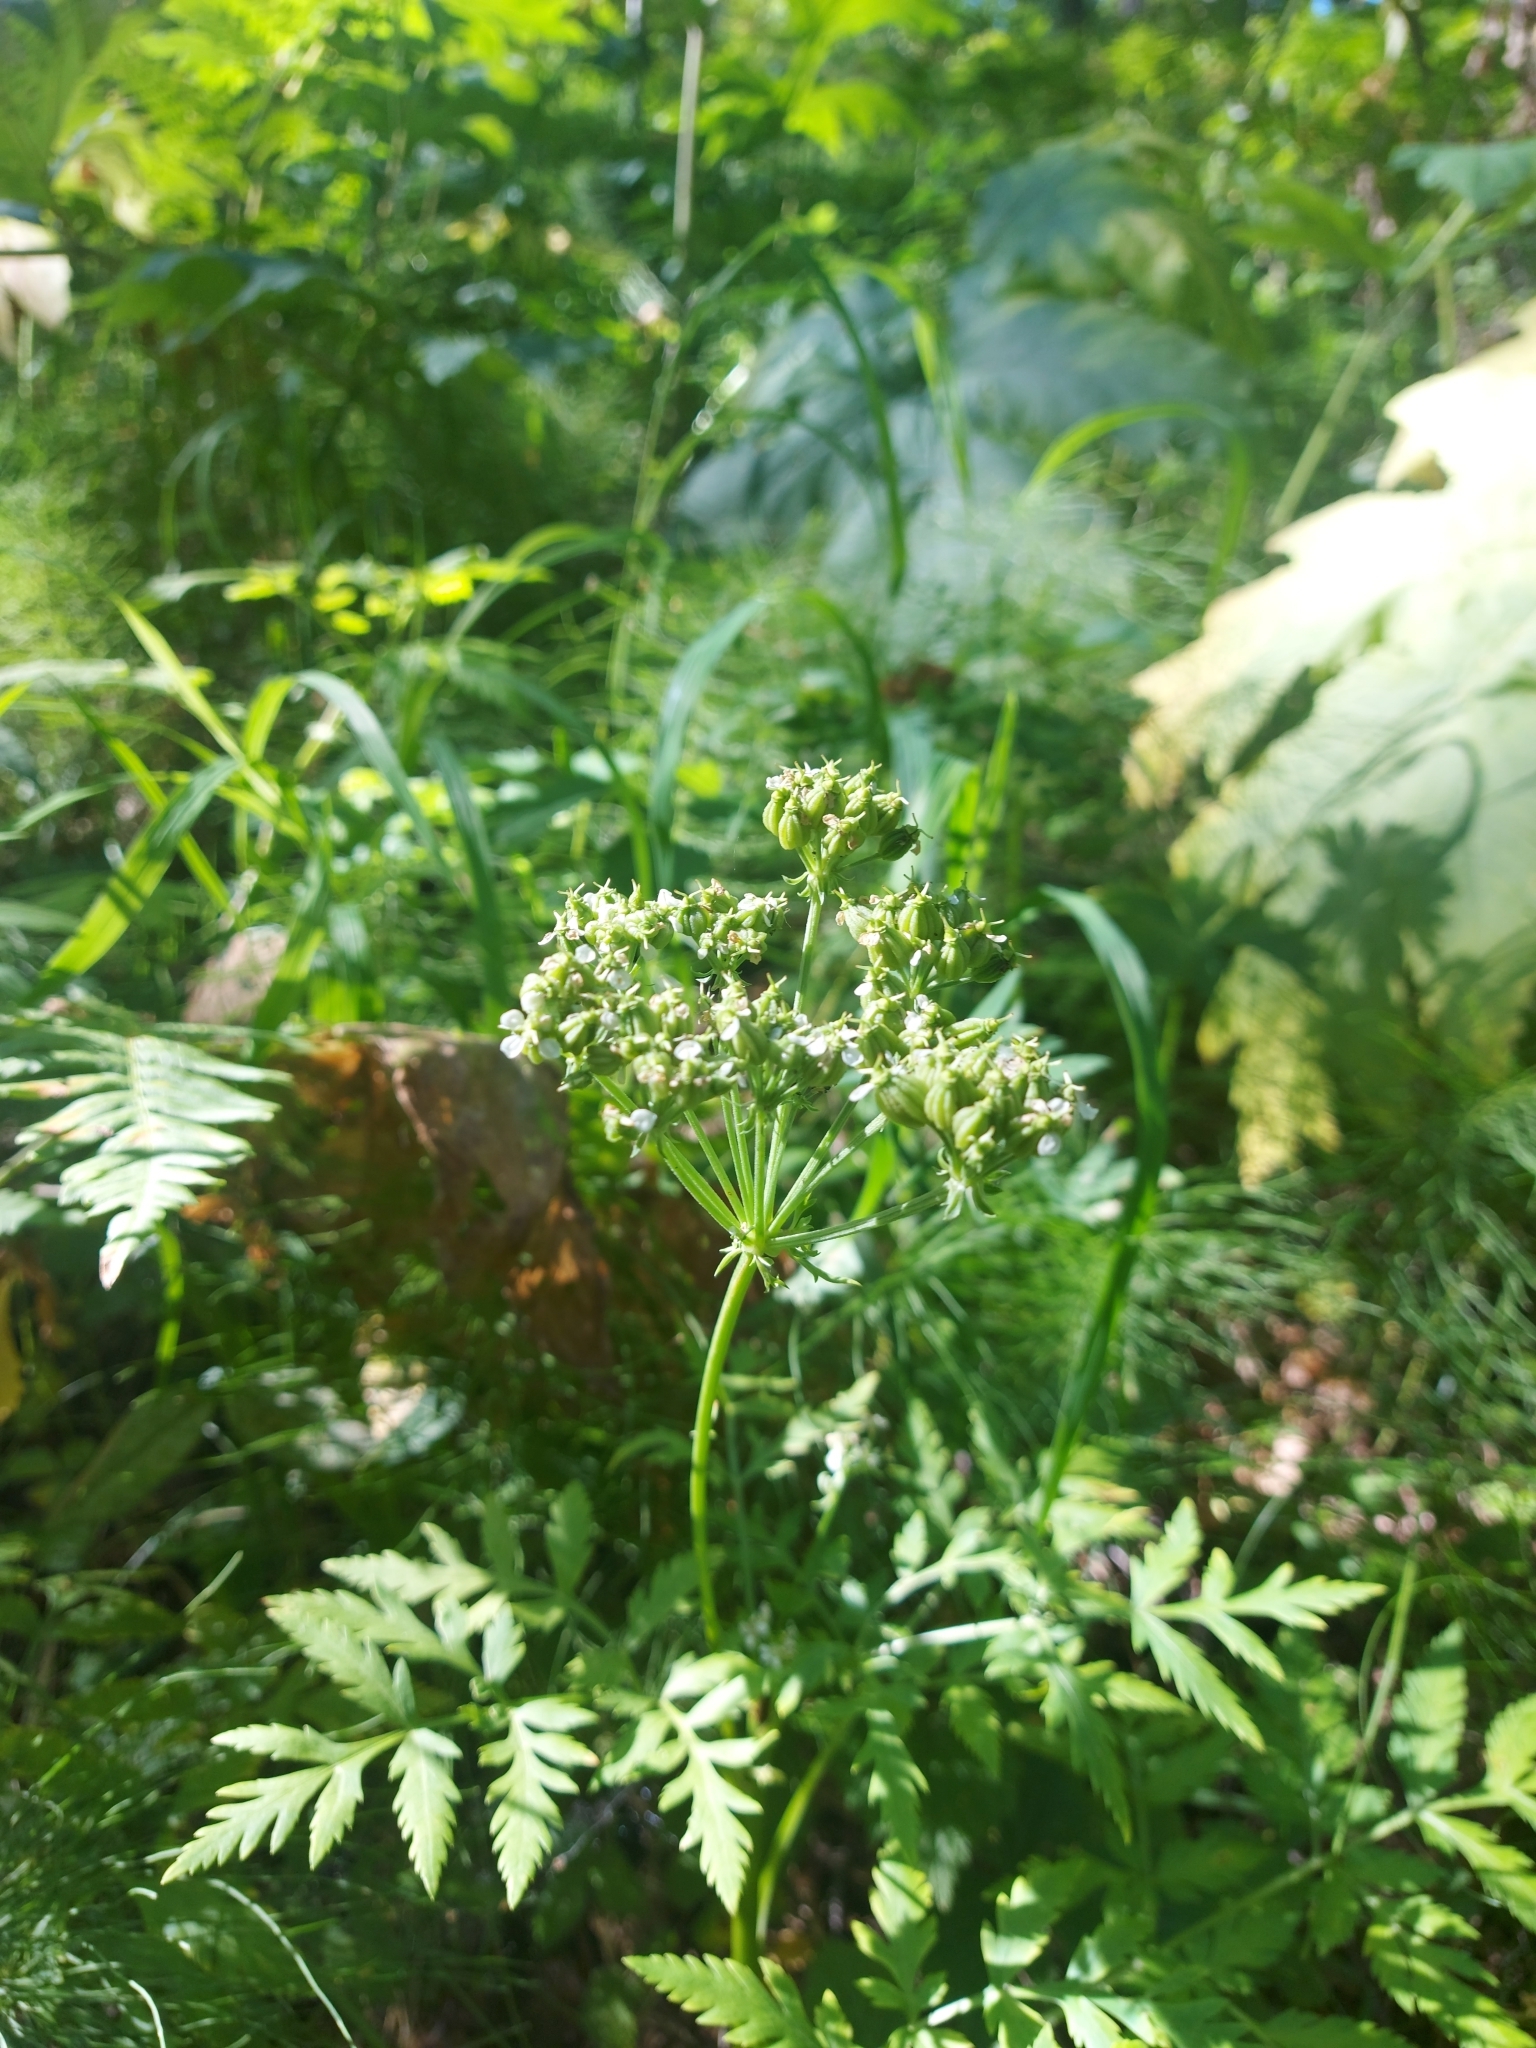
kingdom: Plantae
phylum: Tracheophyta
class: Magnoliopsida
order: Apiales
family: Apiaceae
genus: Pleurospermum
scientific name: Pleurospermum uralense
